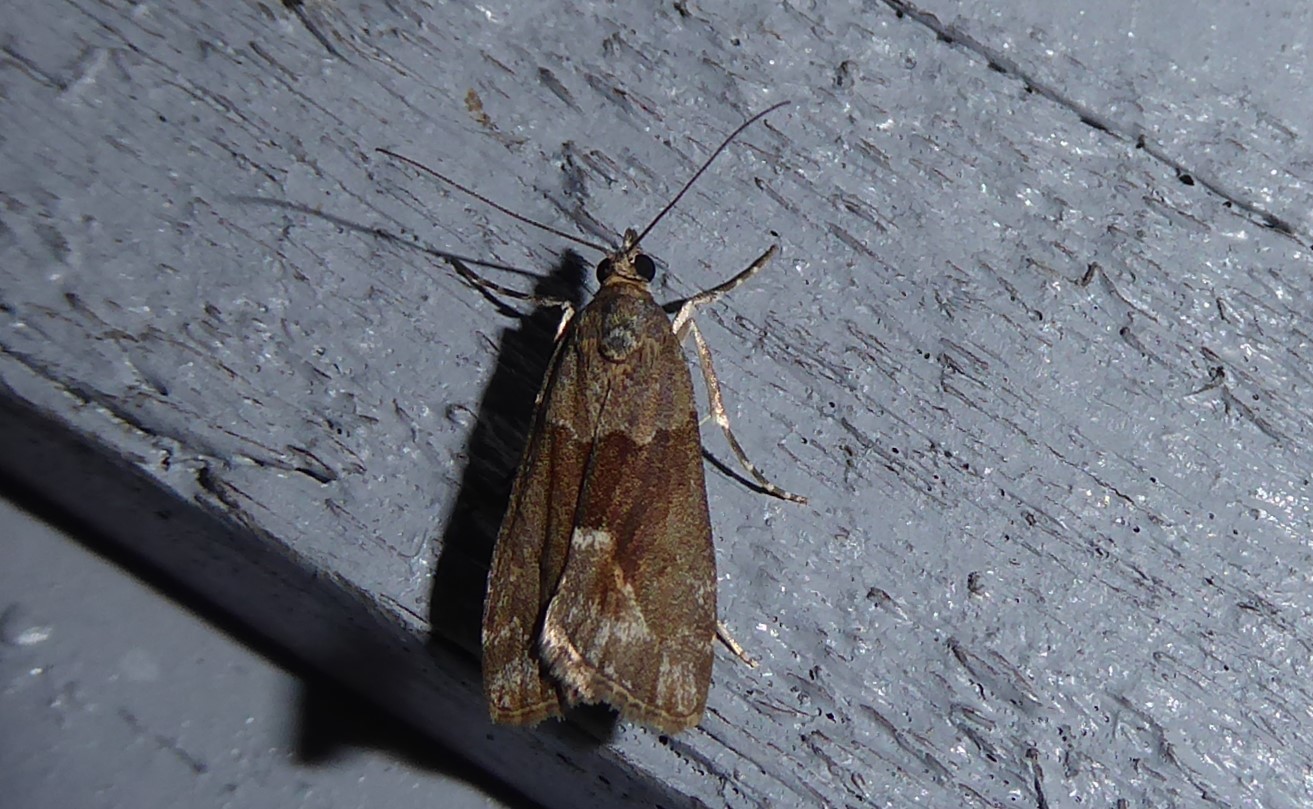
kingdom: Animalia
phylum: Arthropoda
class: Insecta
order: Lepidoptera
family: Crambidae
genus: Eudonia
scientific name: Eudonia submarginalis
